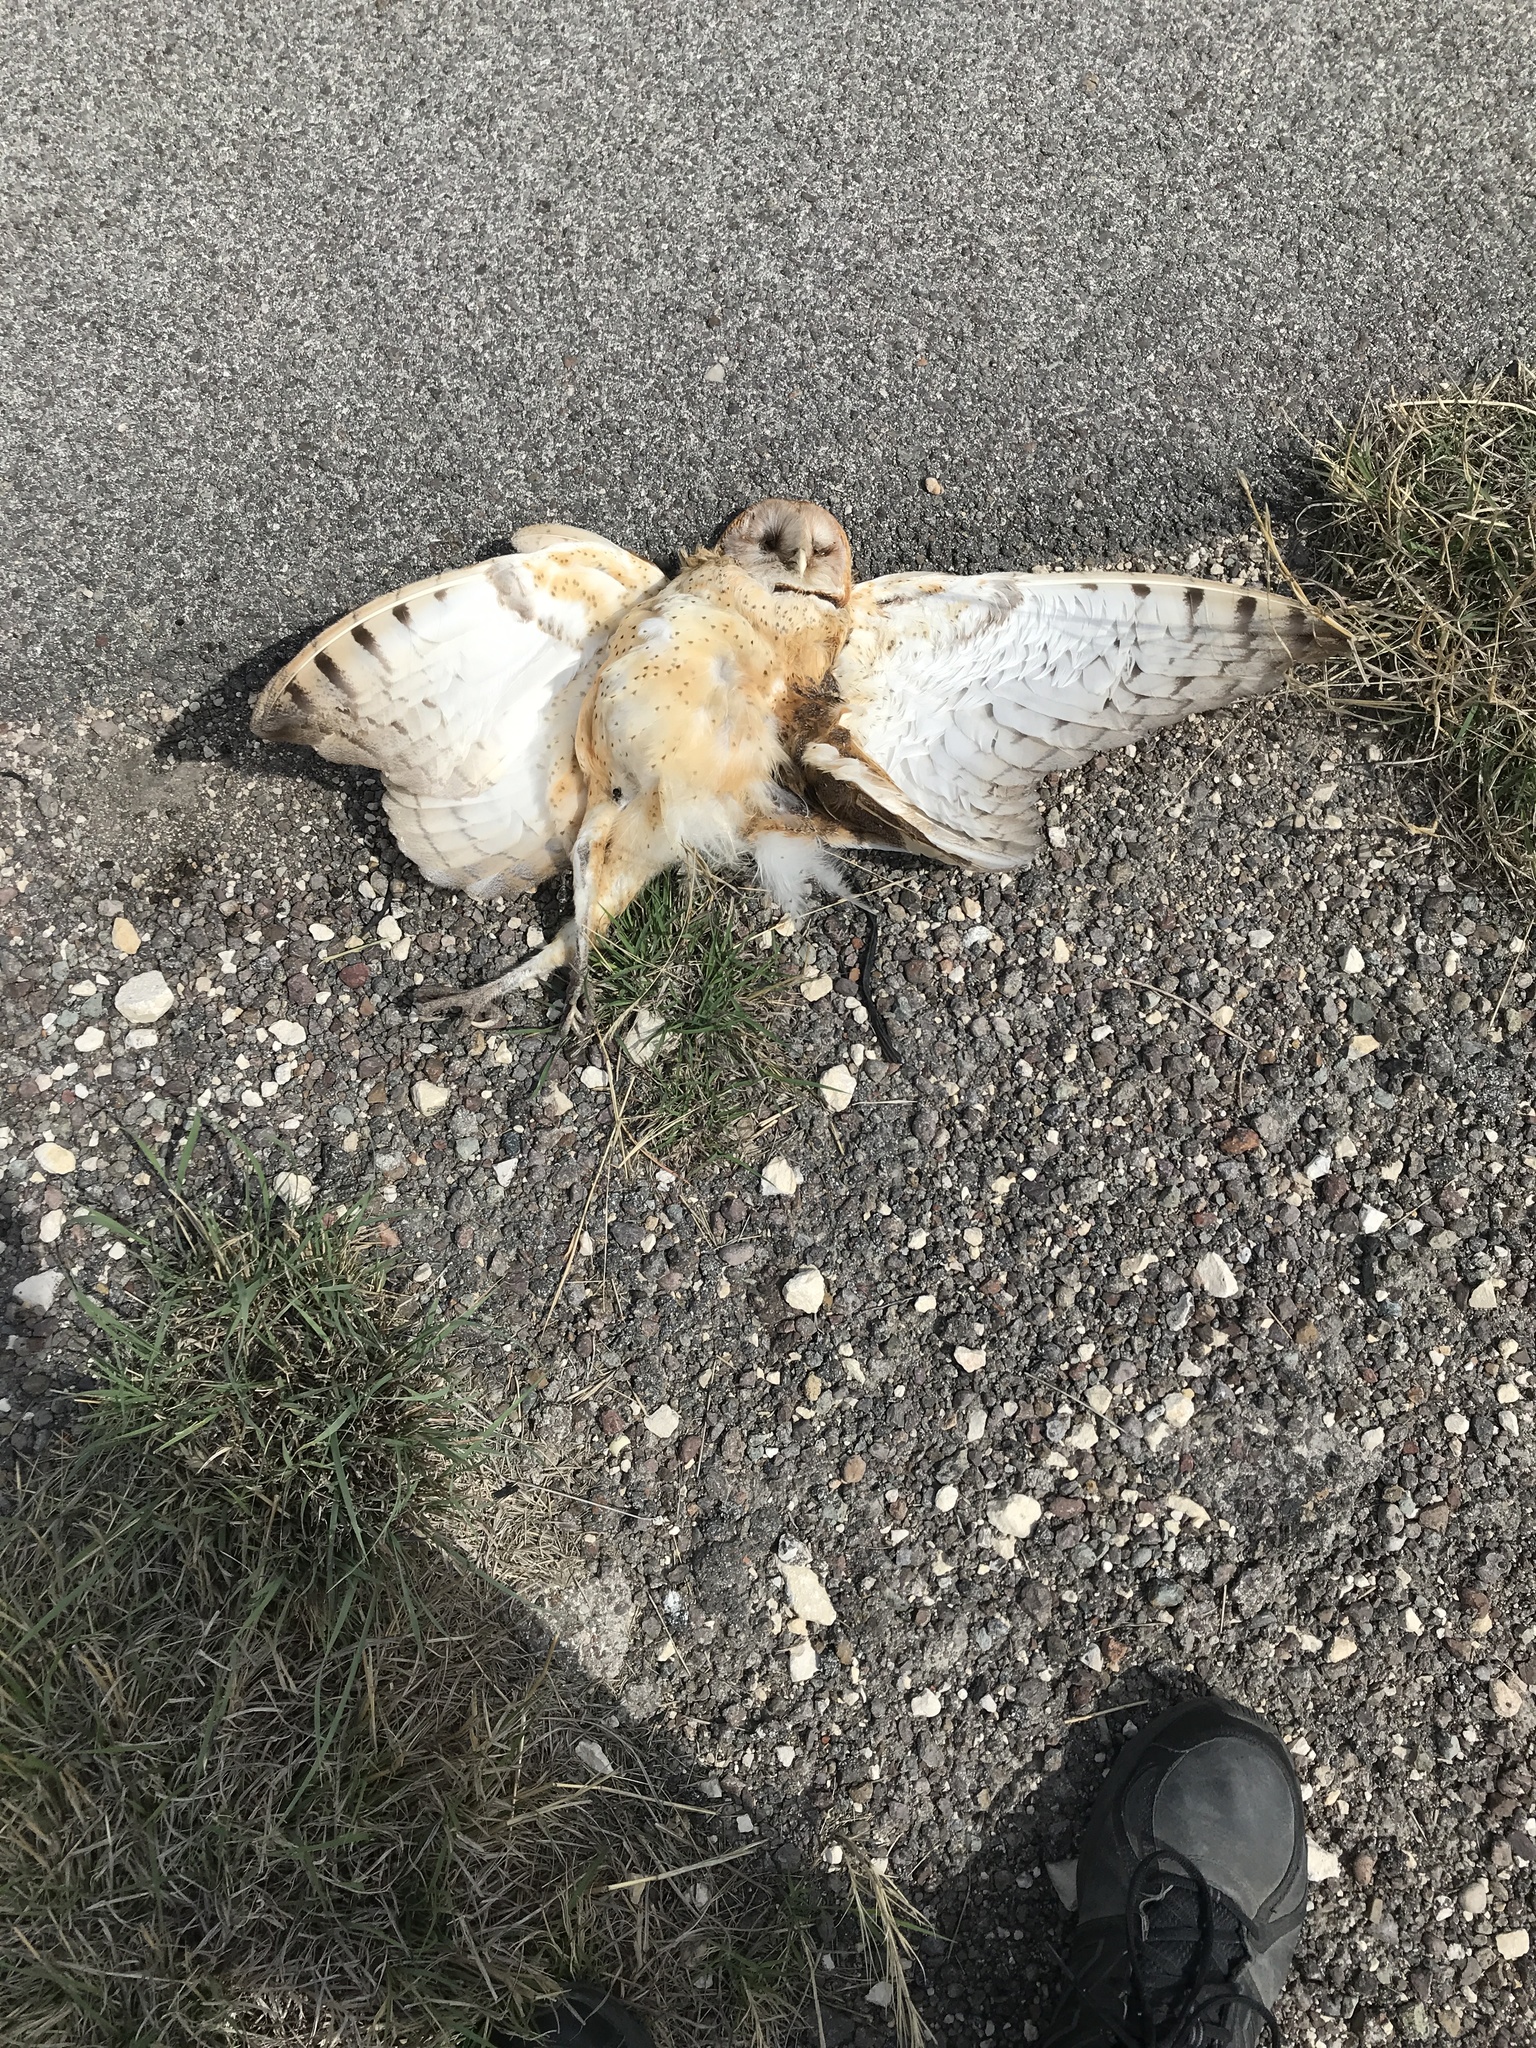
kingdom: Animalia
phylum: Chordata
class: Aves
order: Strigiformes
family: Tytonidae
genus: Tyto
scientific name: Tyto alba
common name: Barn owl
